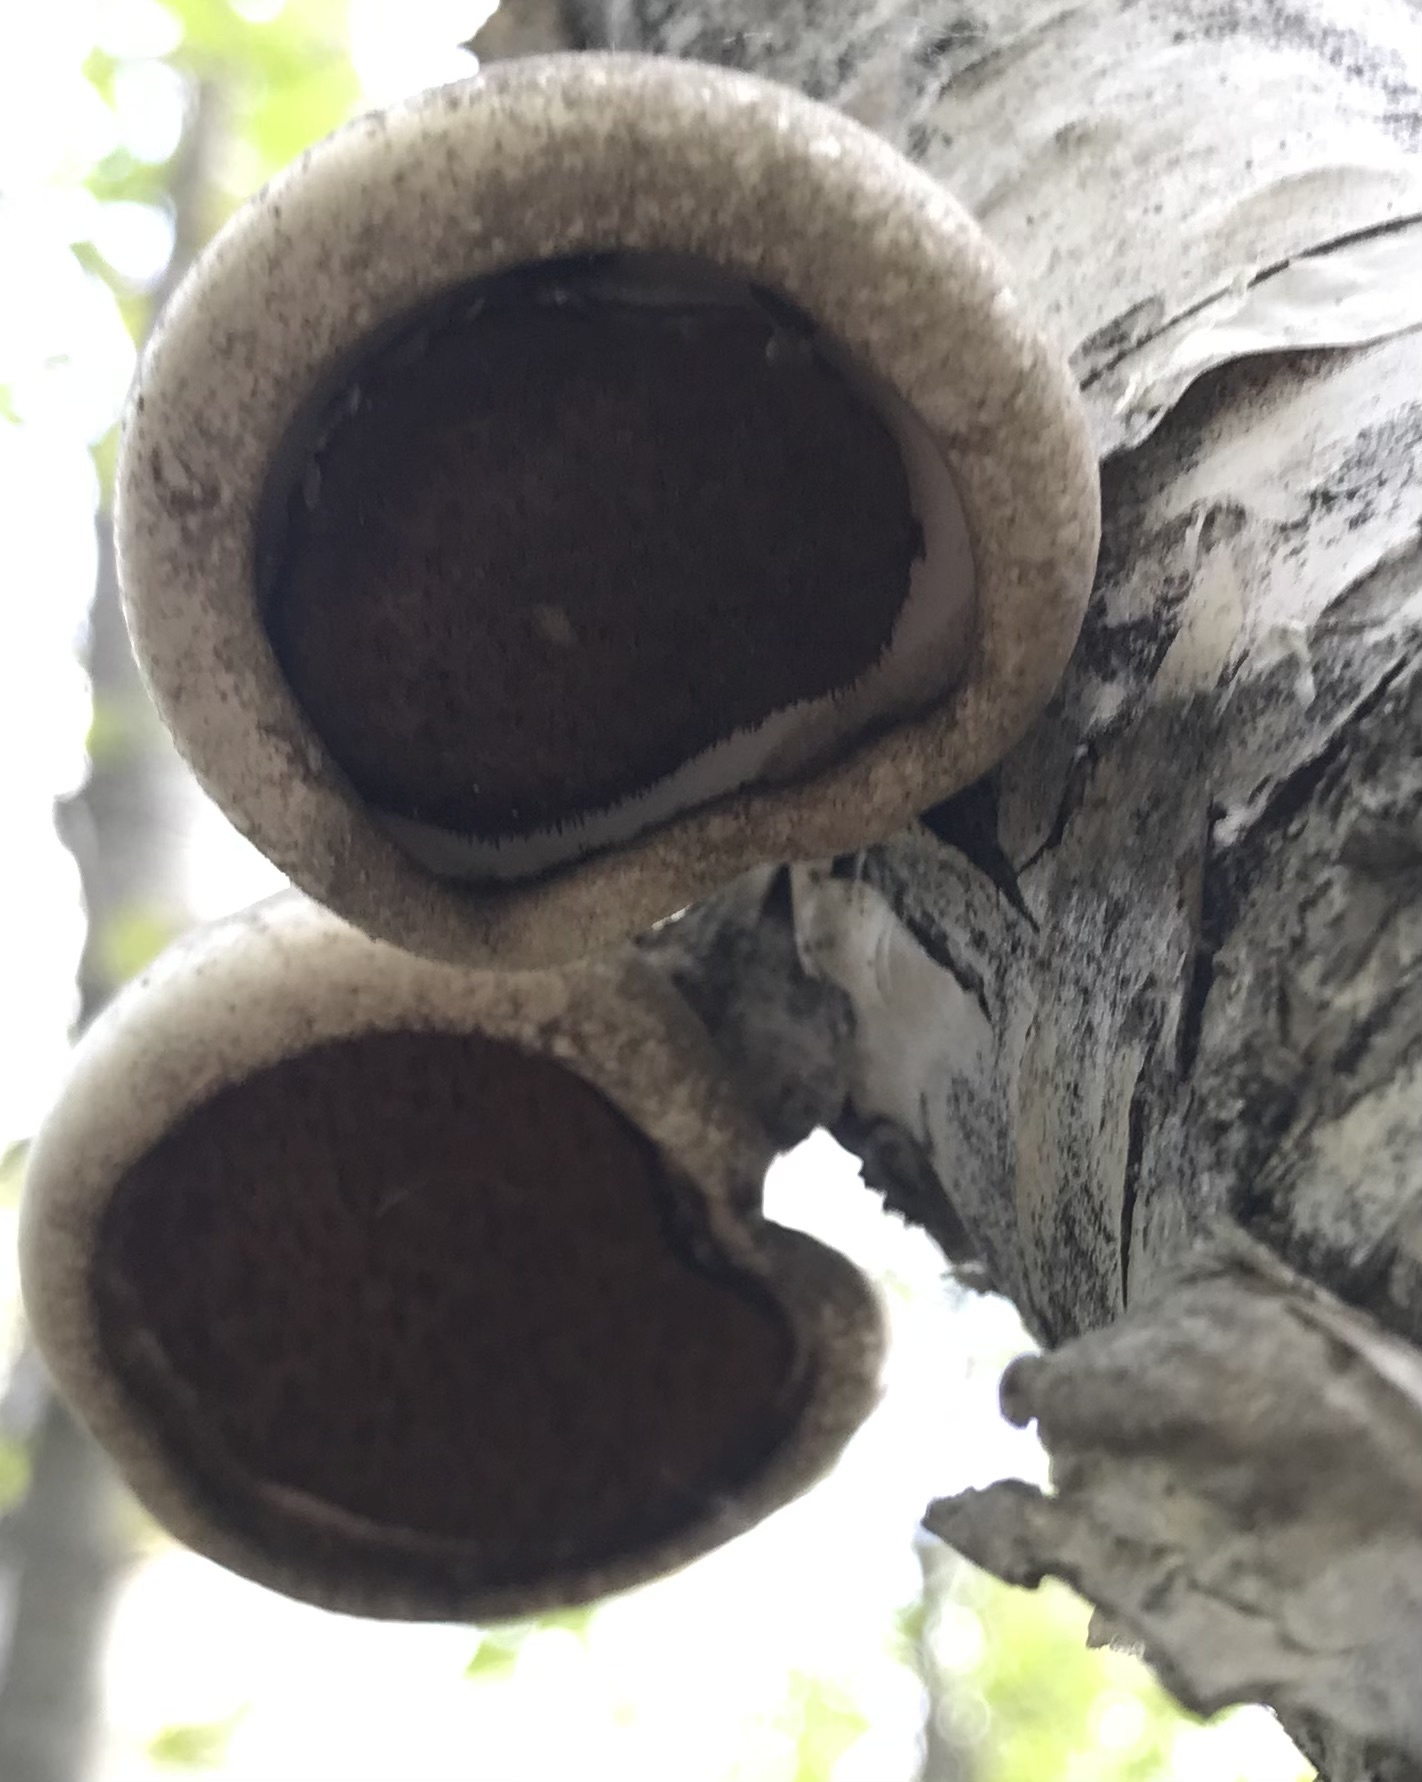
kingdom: Fungi
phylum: Basidiomycota
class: Agaricomycetes
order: Polyporales
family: Fomitopsidaceae
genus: Fomitopsis
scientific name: Fomitopsis betulina
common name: Birch polypore
